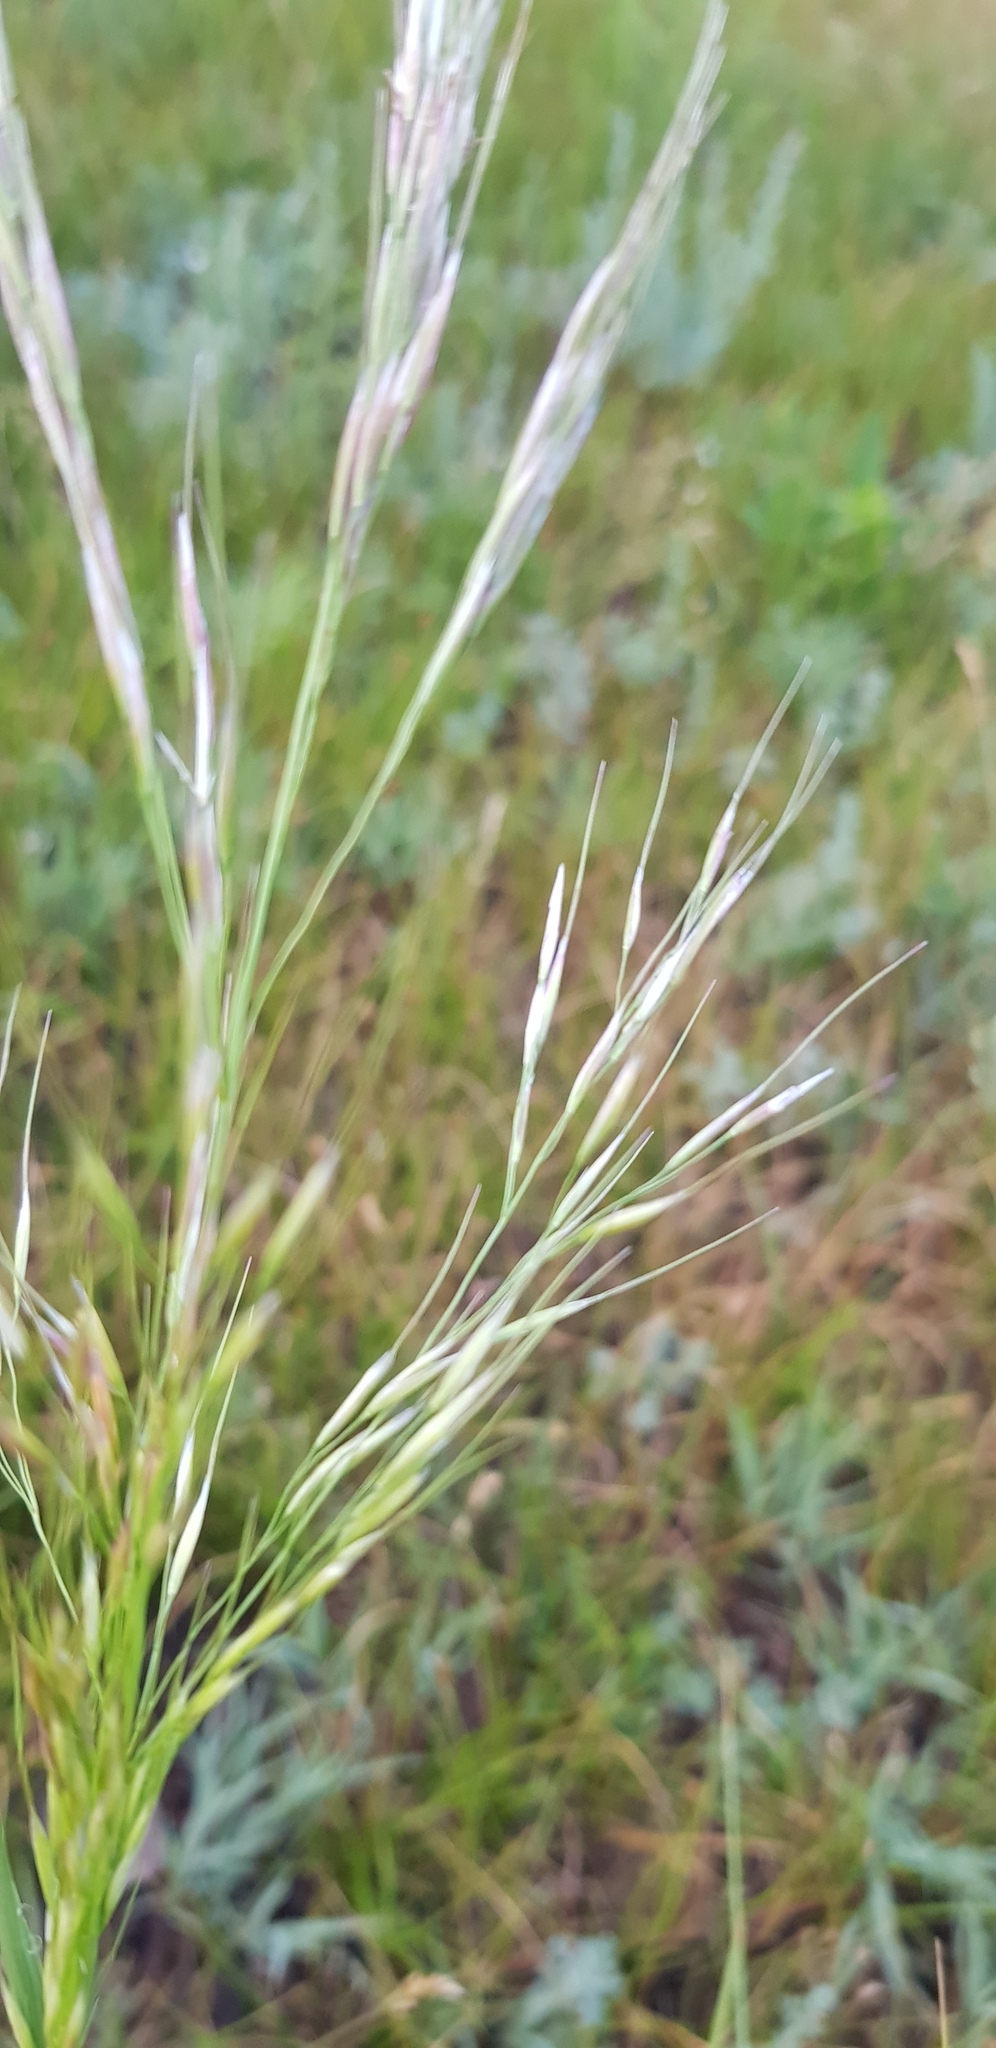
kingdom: Plantae
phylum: Tracheophyta
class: Liliopsida
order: Poales
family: Poaceae
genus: Achnatherum
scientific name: Achnatherum sibiricum
